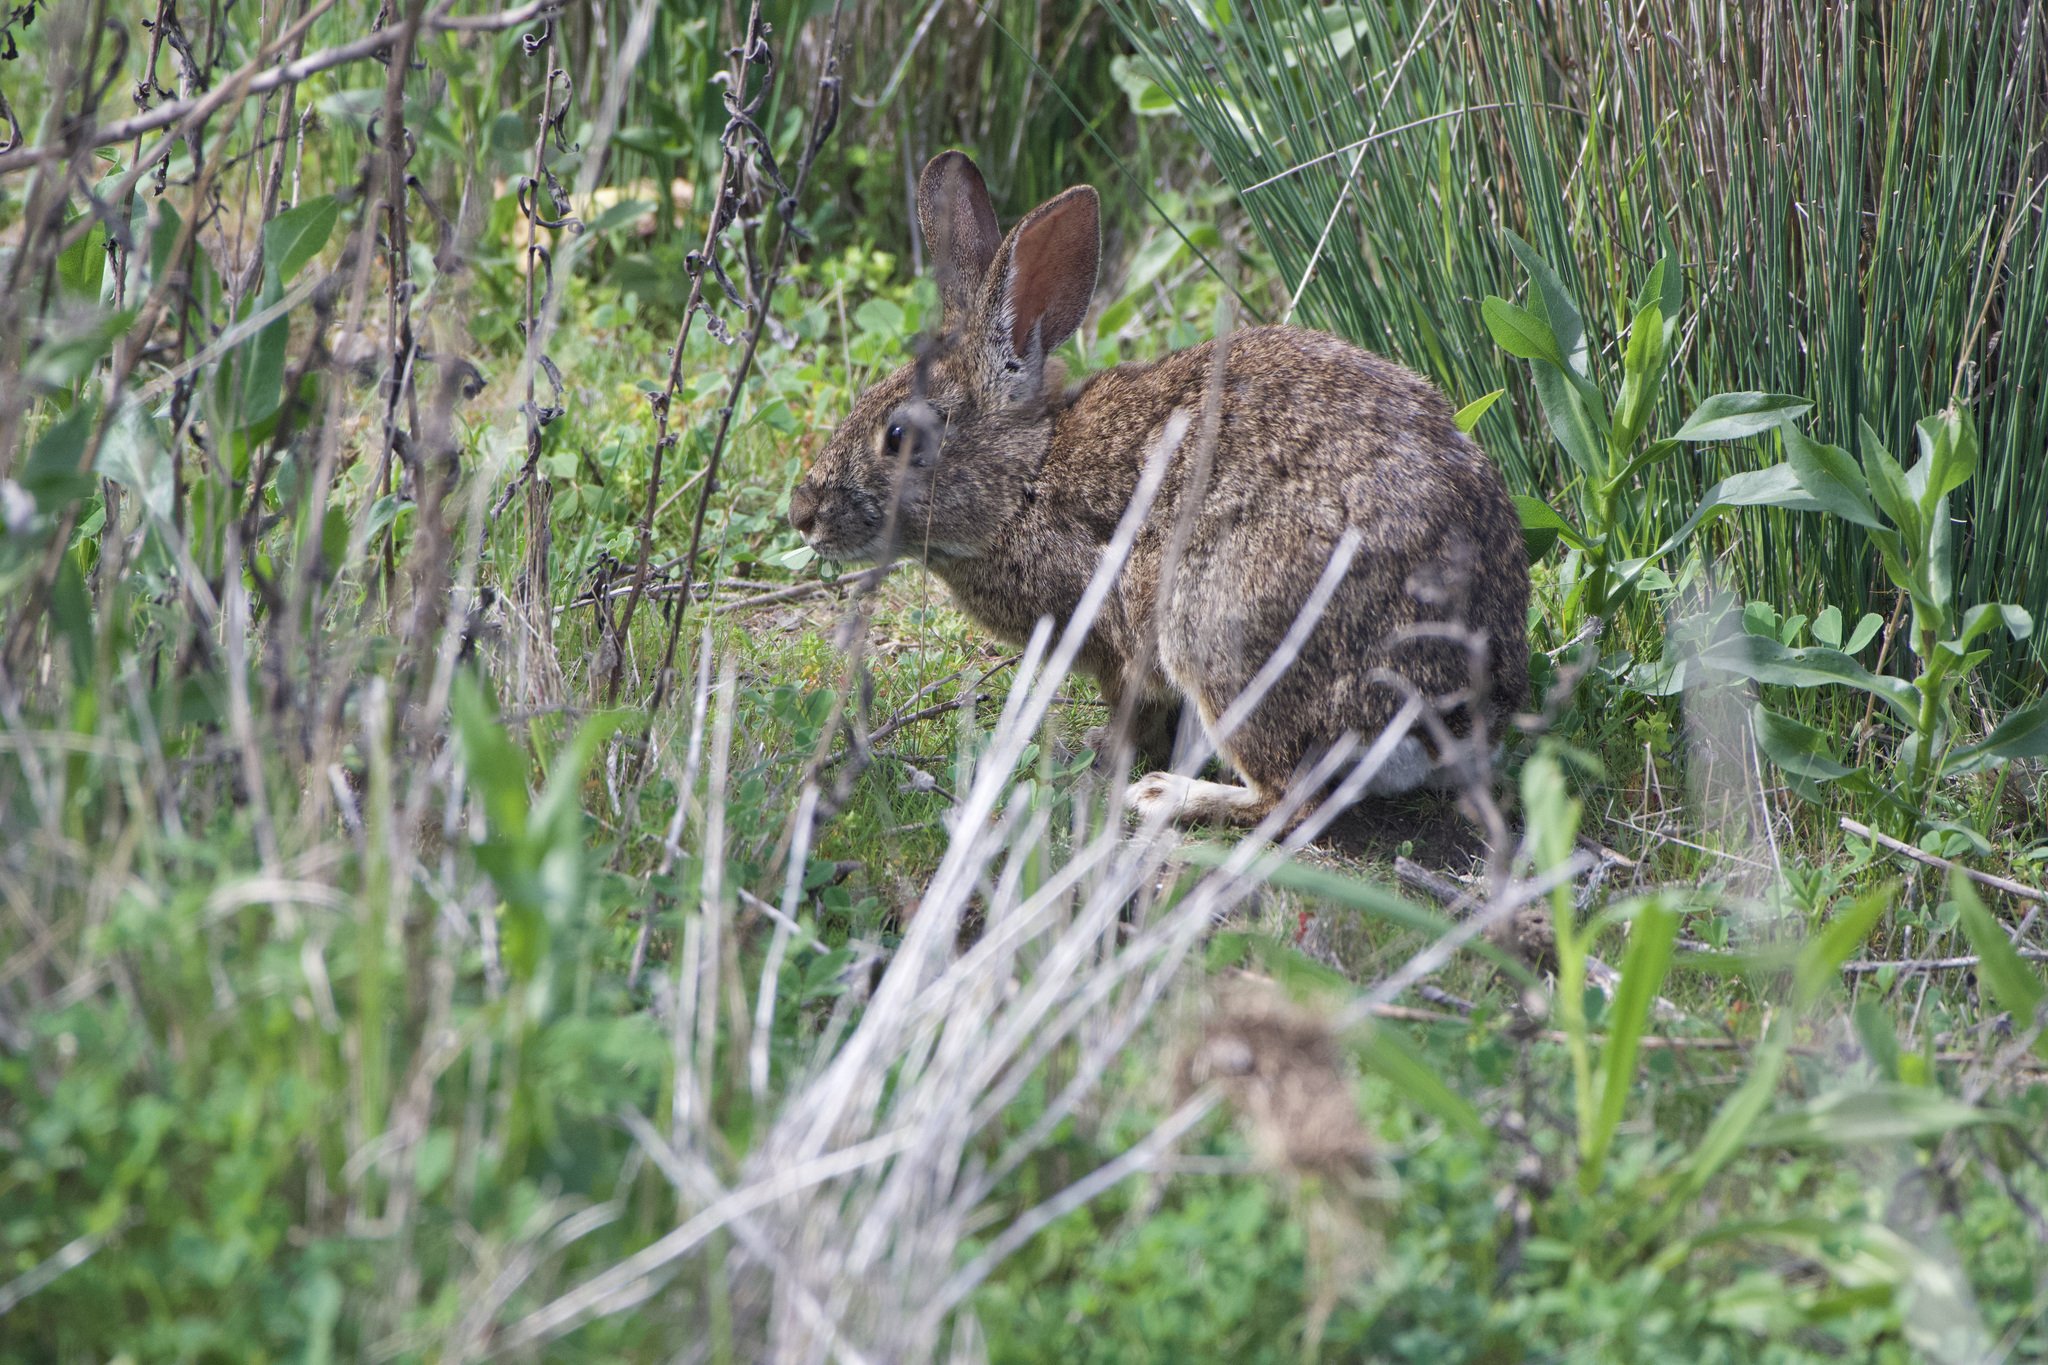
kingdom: Animalia
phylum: Chordata
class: Mammalia
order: Lagomorpha
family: Leporidae
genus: Sylvilagus
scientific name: Sylvilagus bachmani
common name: Brush rabbit
